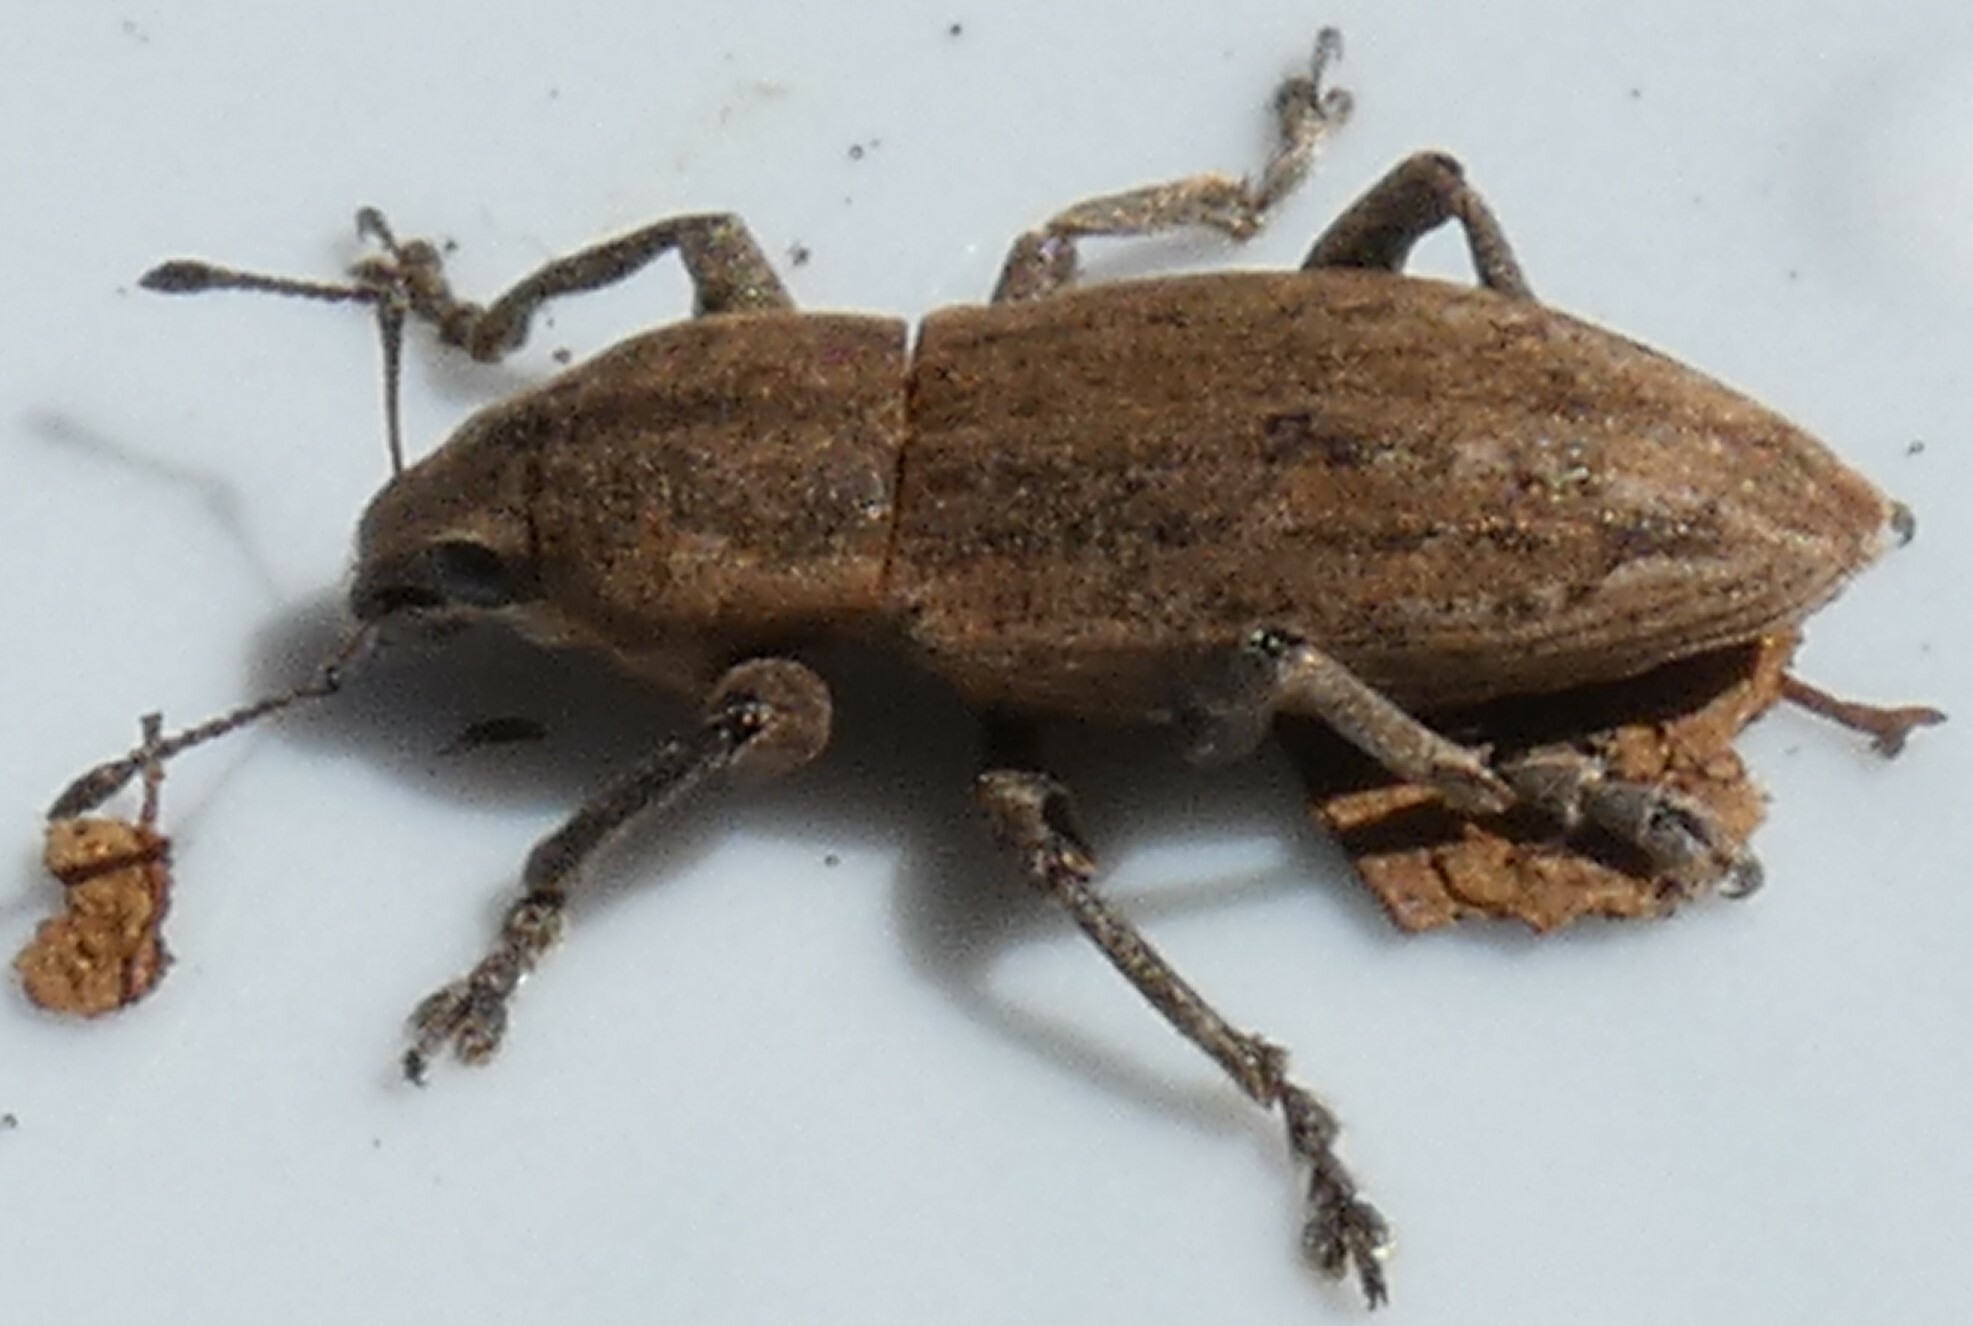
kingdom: Animalia
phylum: Arthropoda
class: Insecta
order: Coleoptera
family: Curculionidae
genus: Tanymecus
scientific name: Tanymecus lacaena
